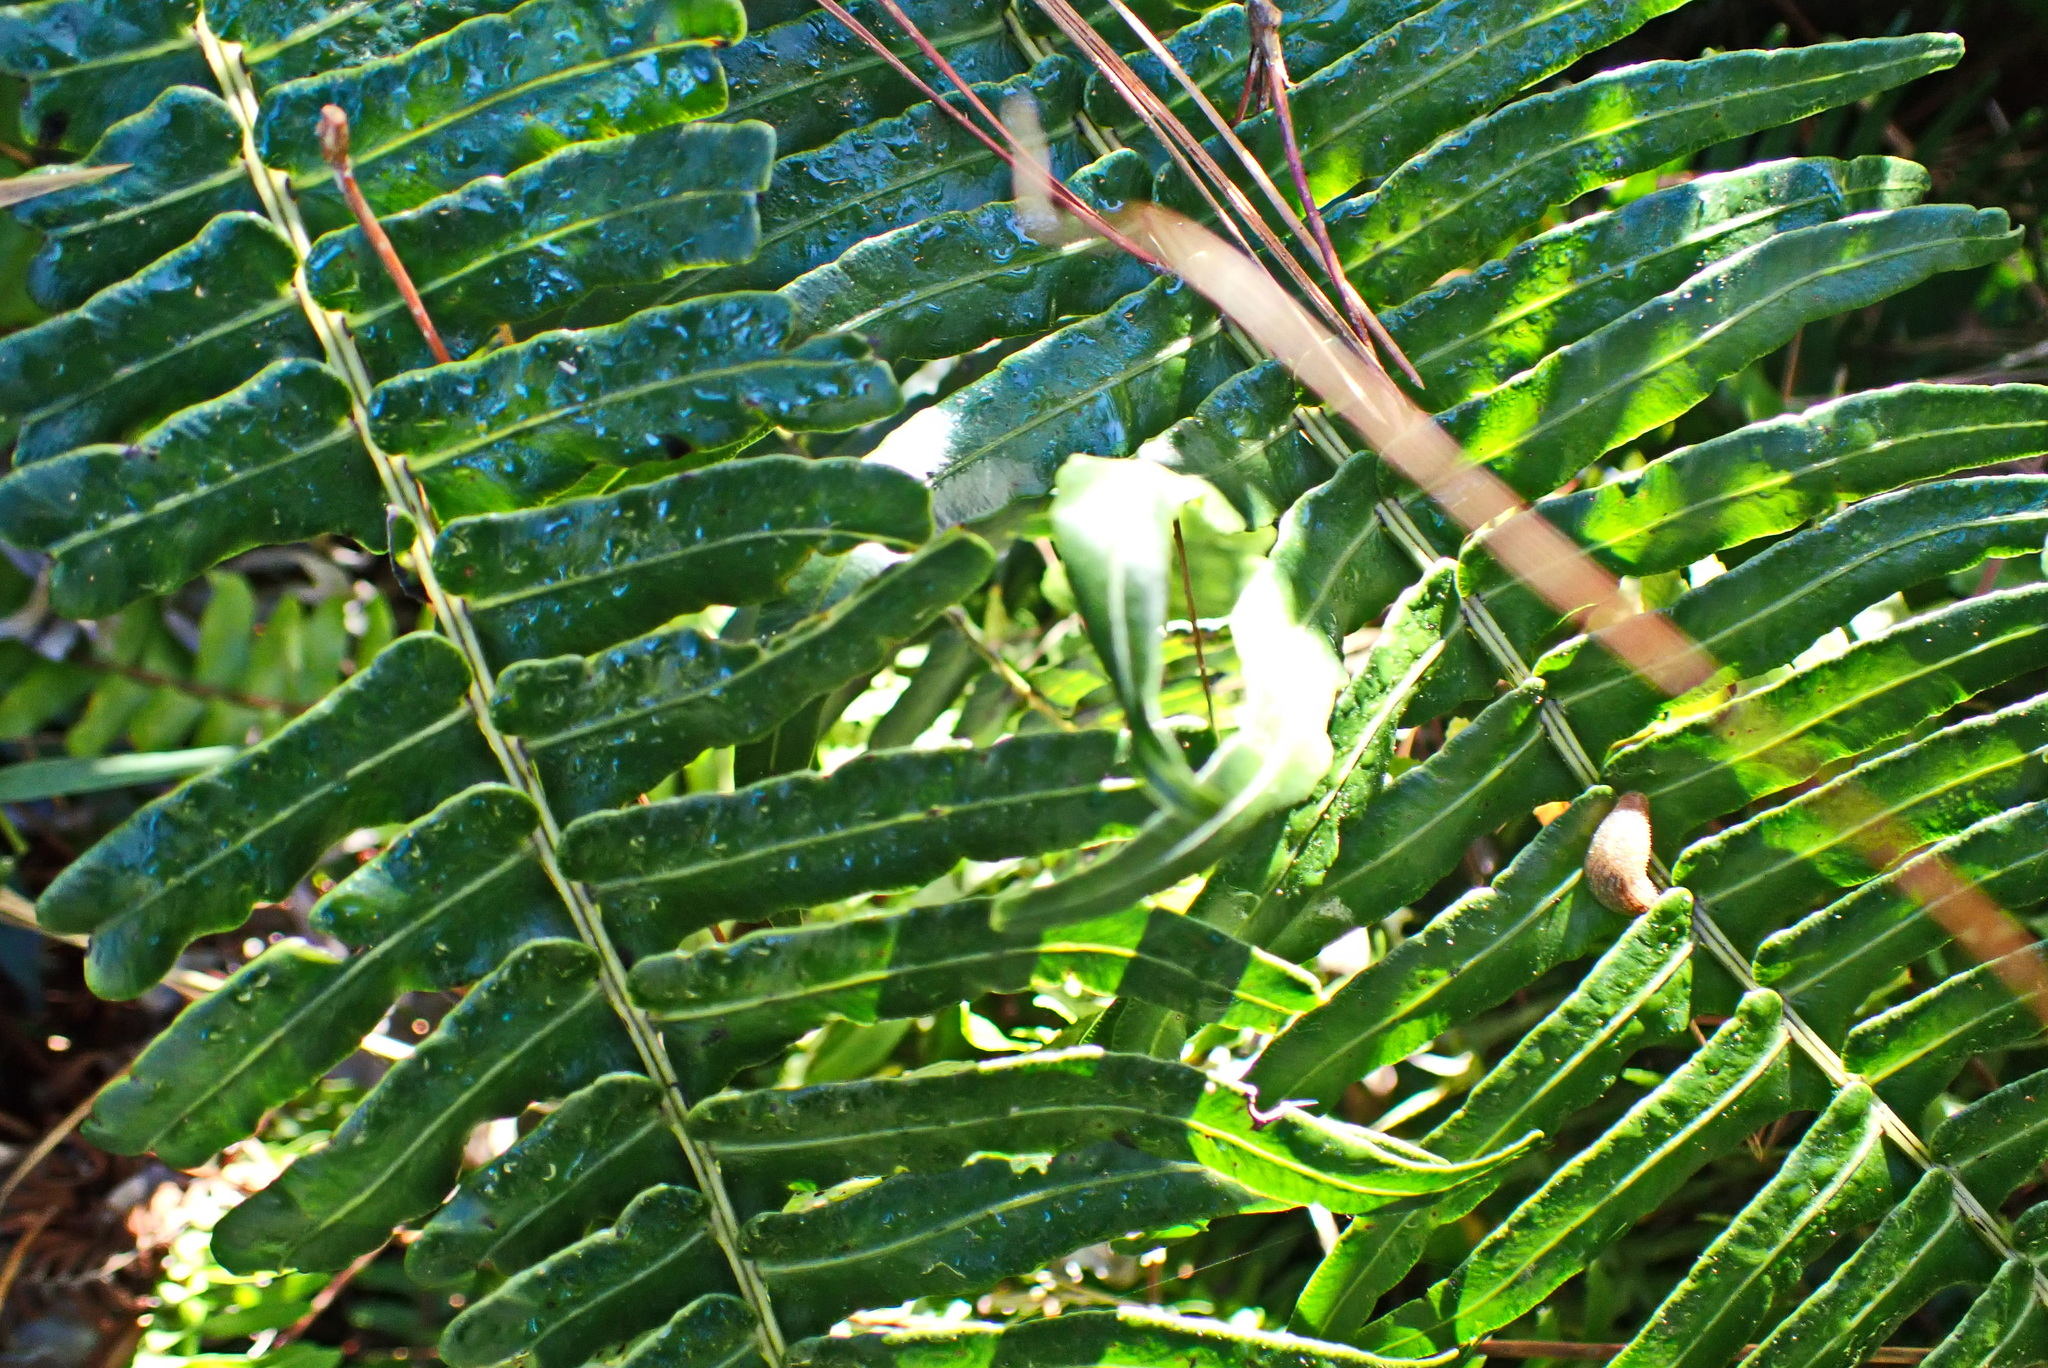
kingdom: Plantae
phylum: Tracheophyta
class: Polypodiopsida
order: Polypodiales
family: Blechnaceae
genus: Blechnum
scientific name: Blechnum punctulatum
